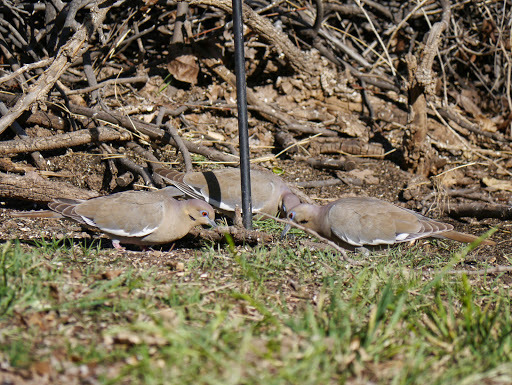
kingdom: Animalia
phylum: Chordata
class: Aves
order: Columbiformes
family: Columbidae
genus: Zenaida
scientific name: Zenaida asiatica
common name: White-winged dove
